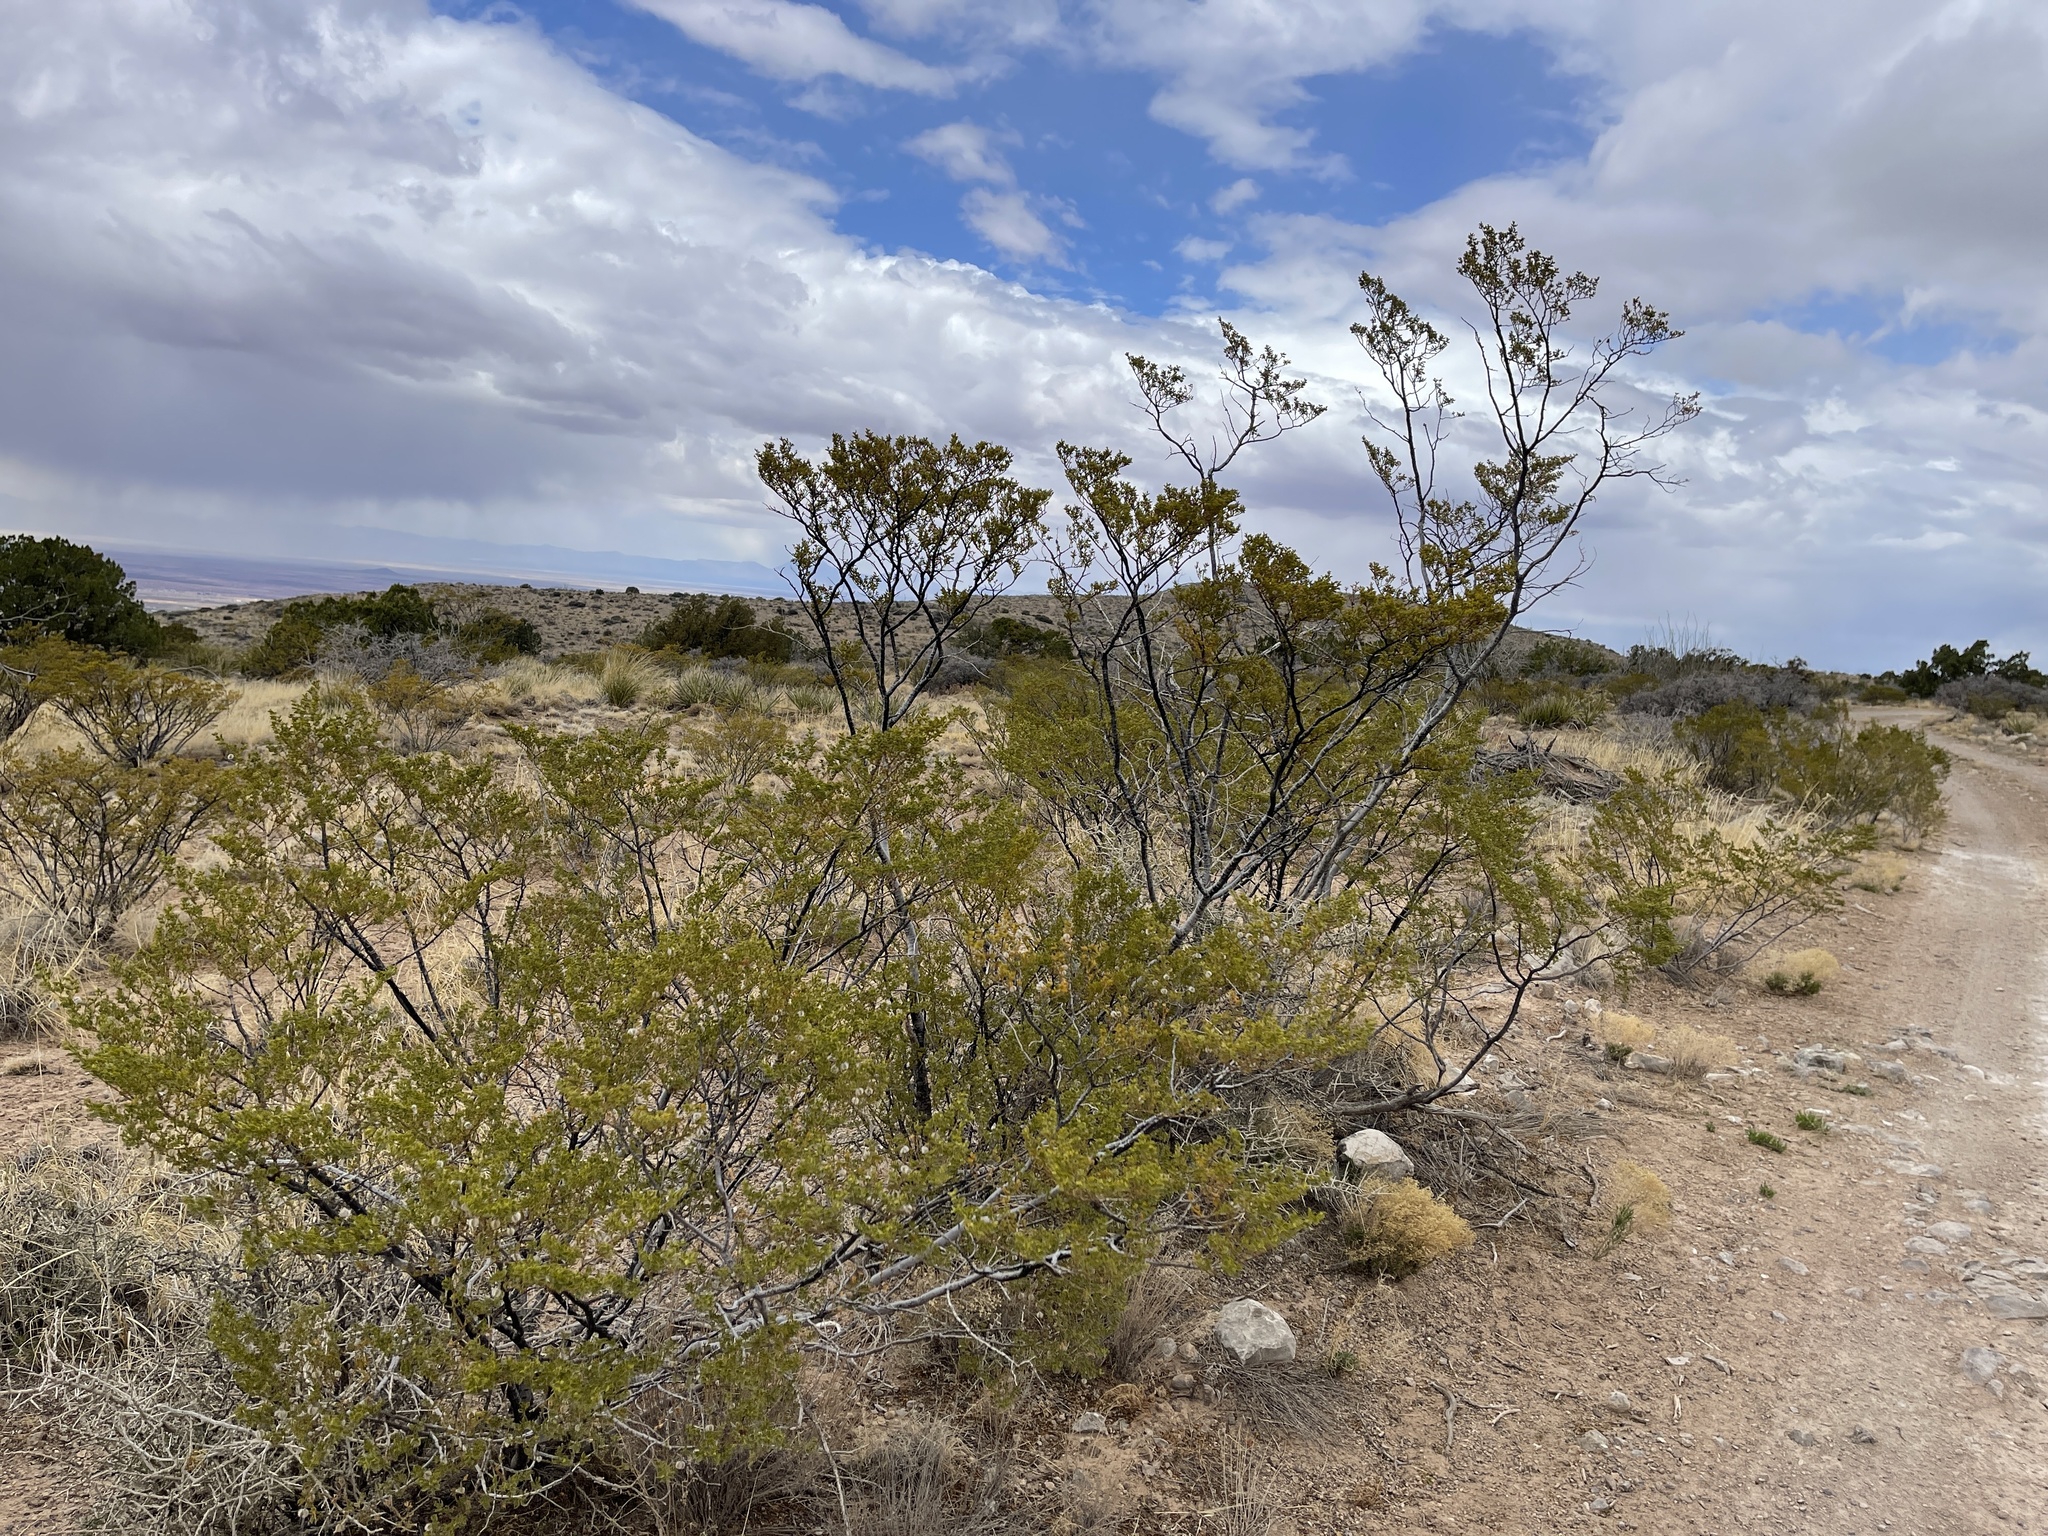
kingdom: Plantae
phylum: Tracheophyta
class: Magnoliopsida
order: Zygophyllales
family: Zygophyllaceae
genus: Larrea
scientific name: Larrea tridentata
